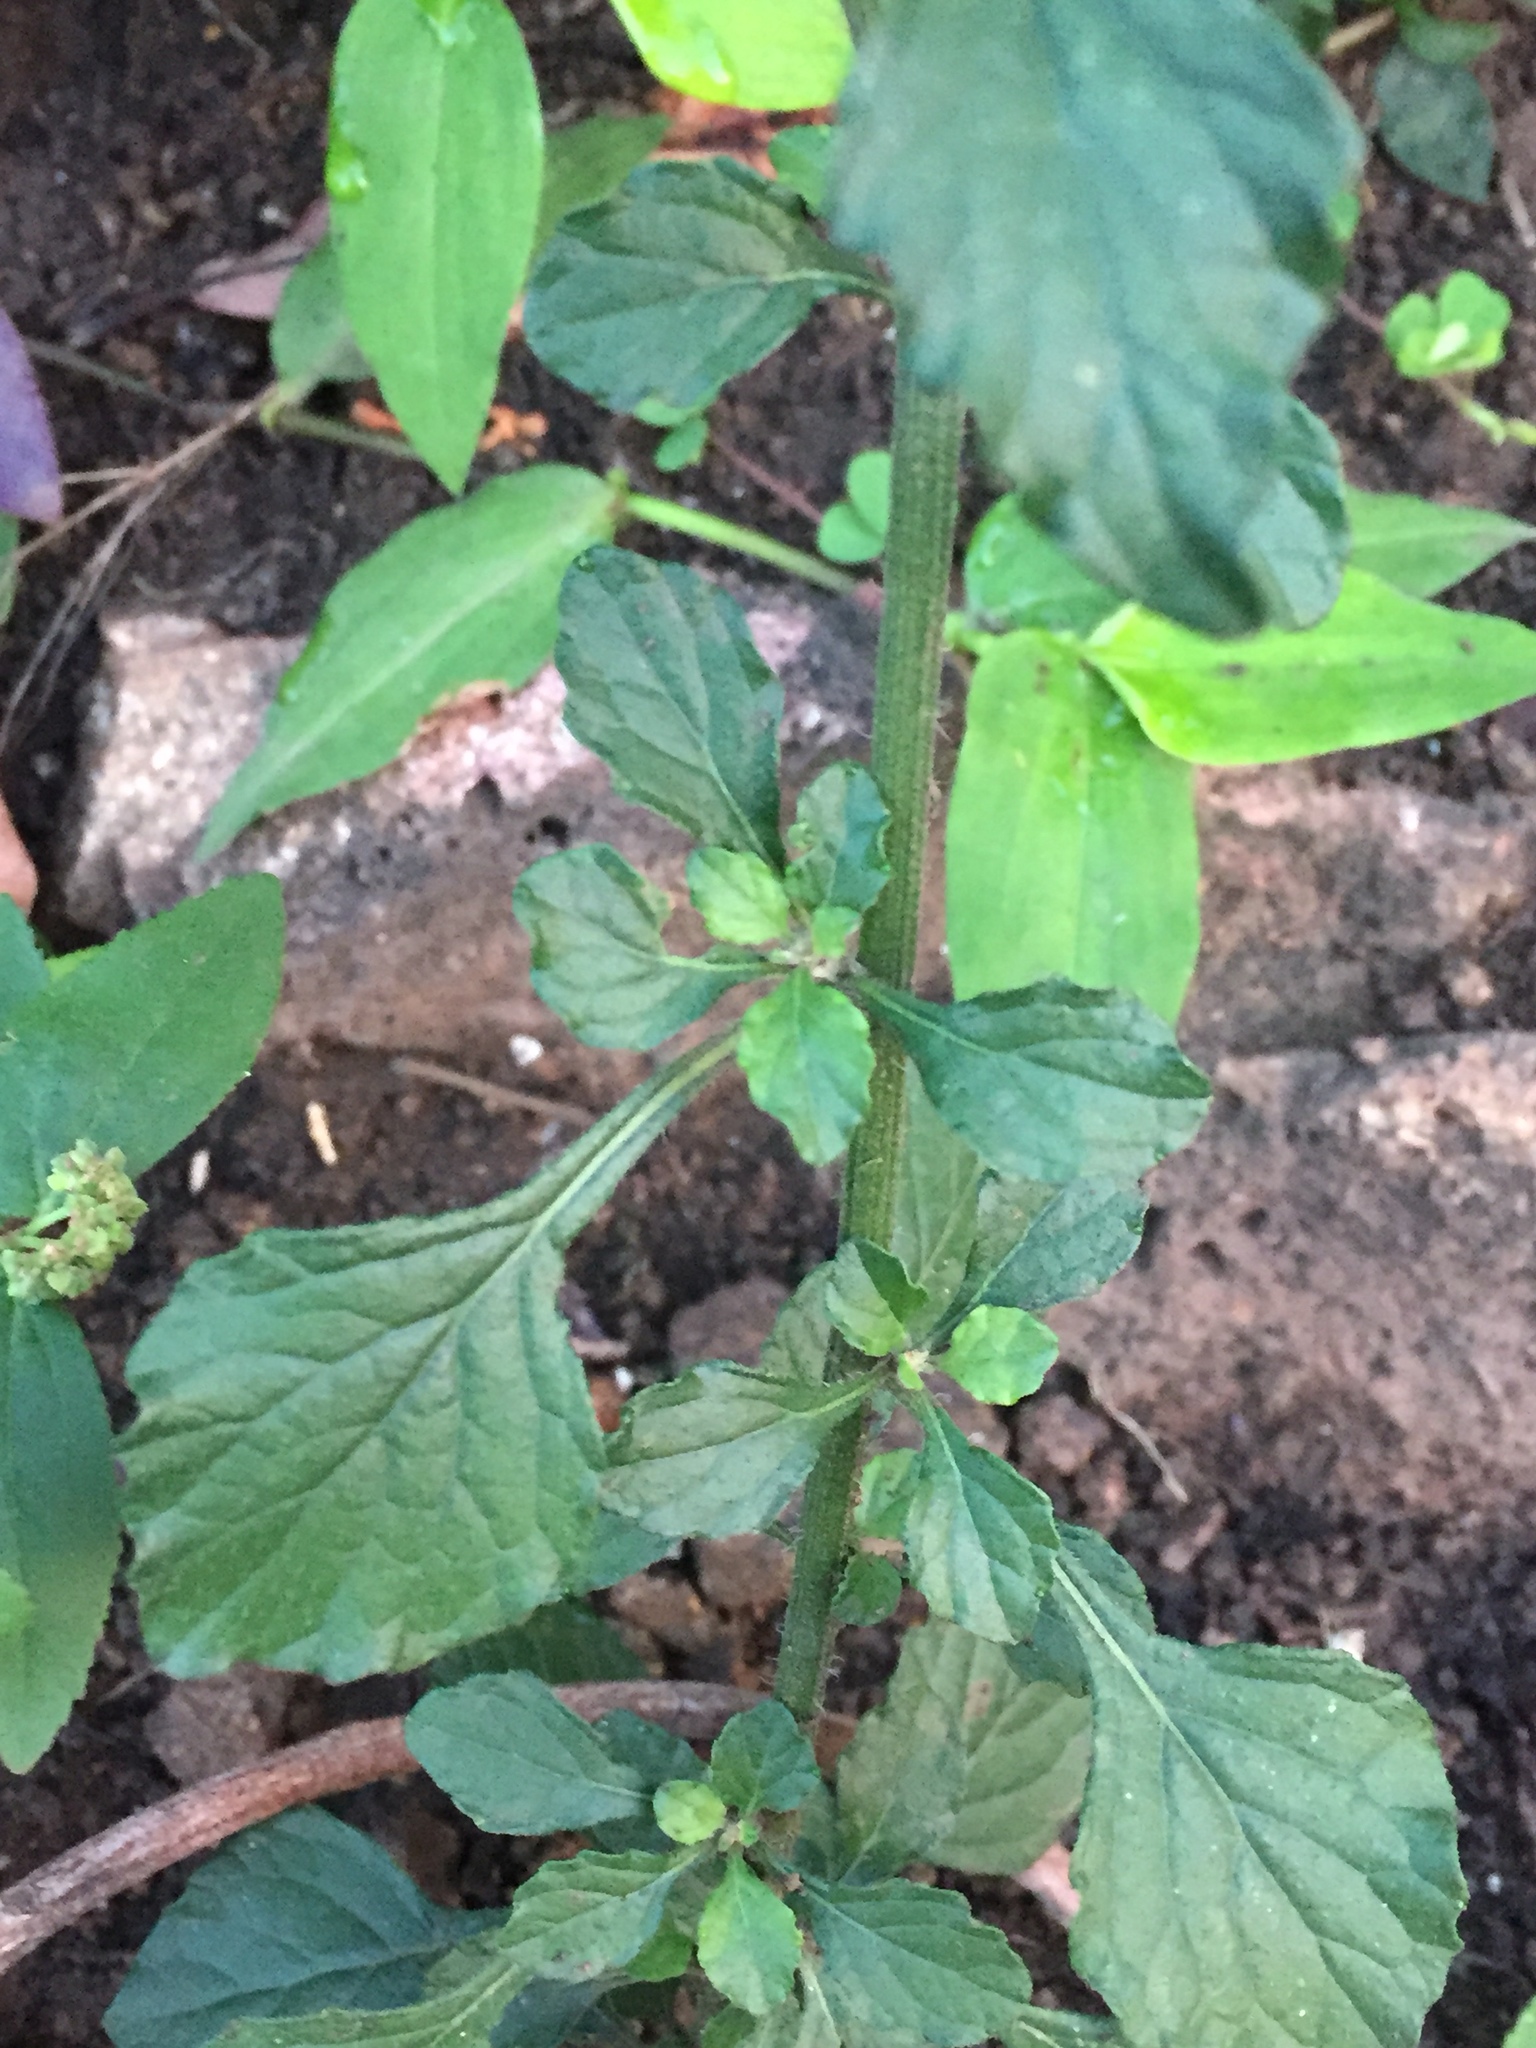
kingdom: Plantae
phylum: Tracheophyta
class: Magnoliopsida
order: Asterales
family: Asteraceae
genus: Cyanthillium
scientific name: Cyanthillium cinereum
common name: Little ironweed
